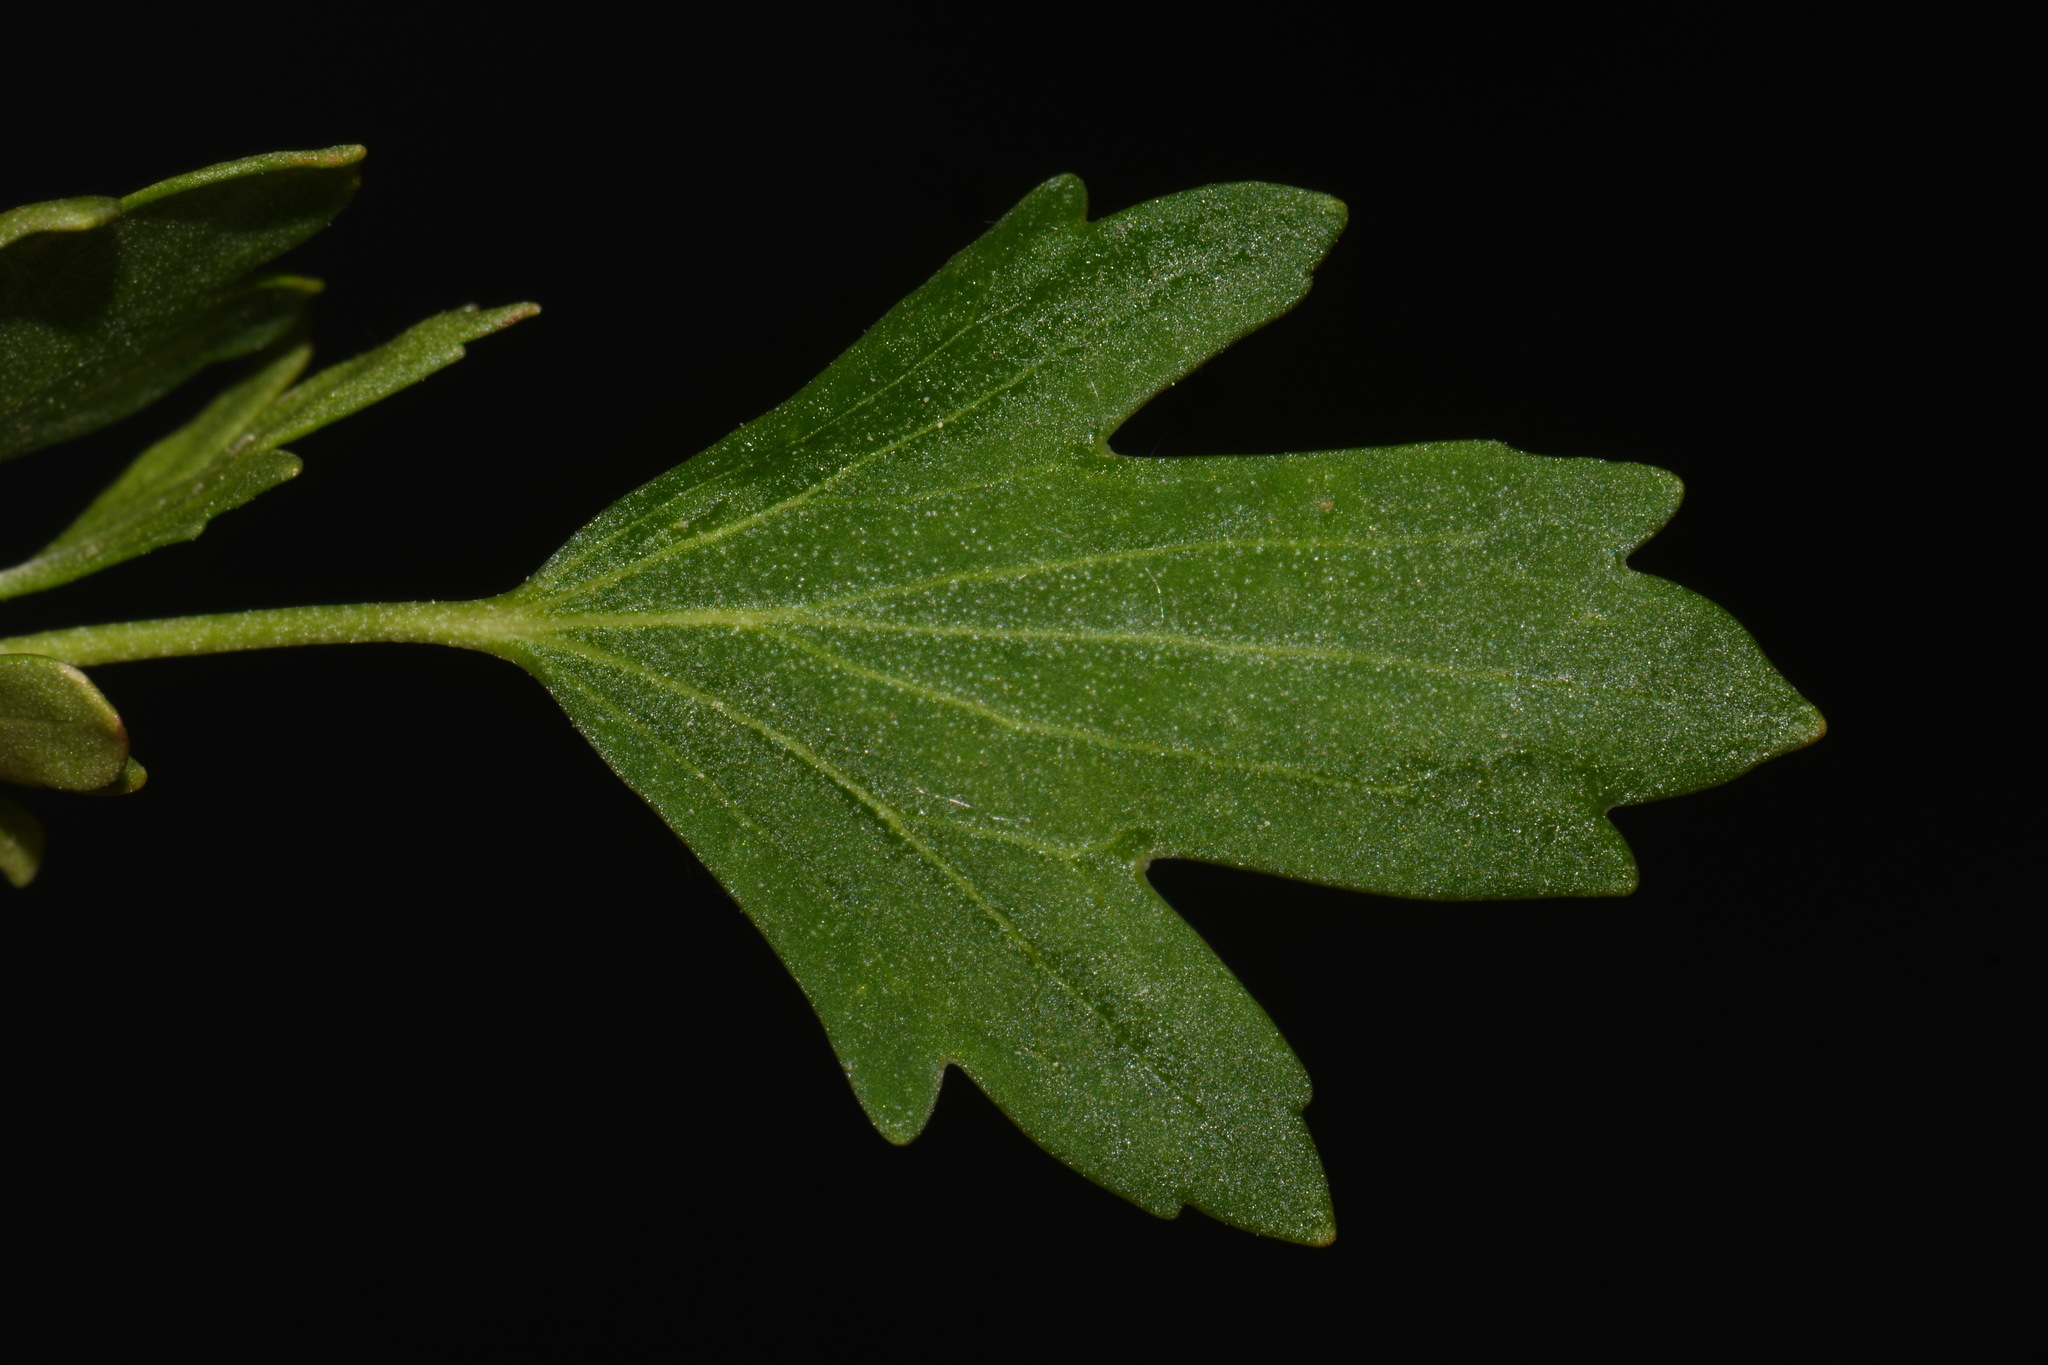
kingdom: Plantae
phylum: Tracheophyta
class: Magnoliopsida
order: Saxifragales
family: Grossulariaceae
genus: Ribes
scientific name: Ribes aureum
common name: Golden currant
